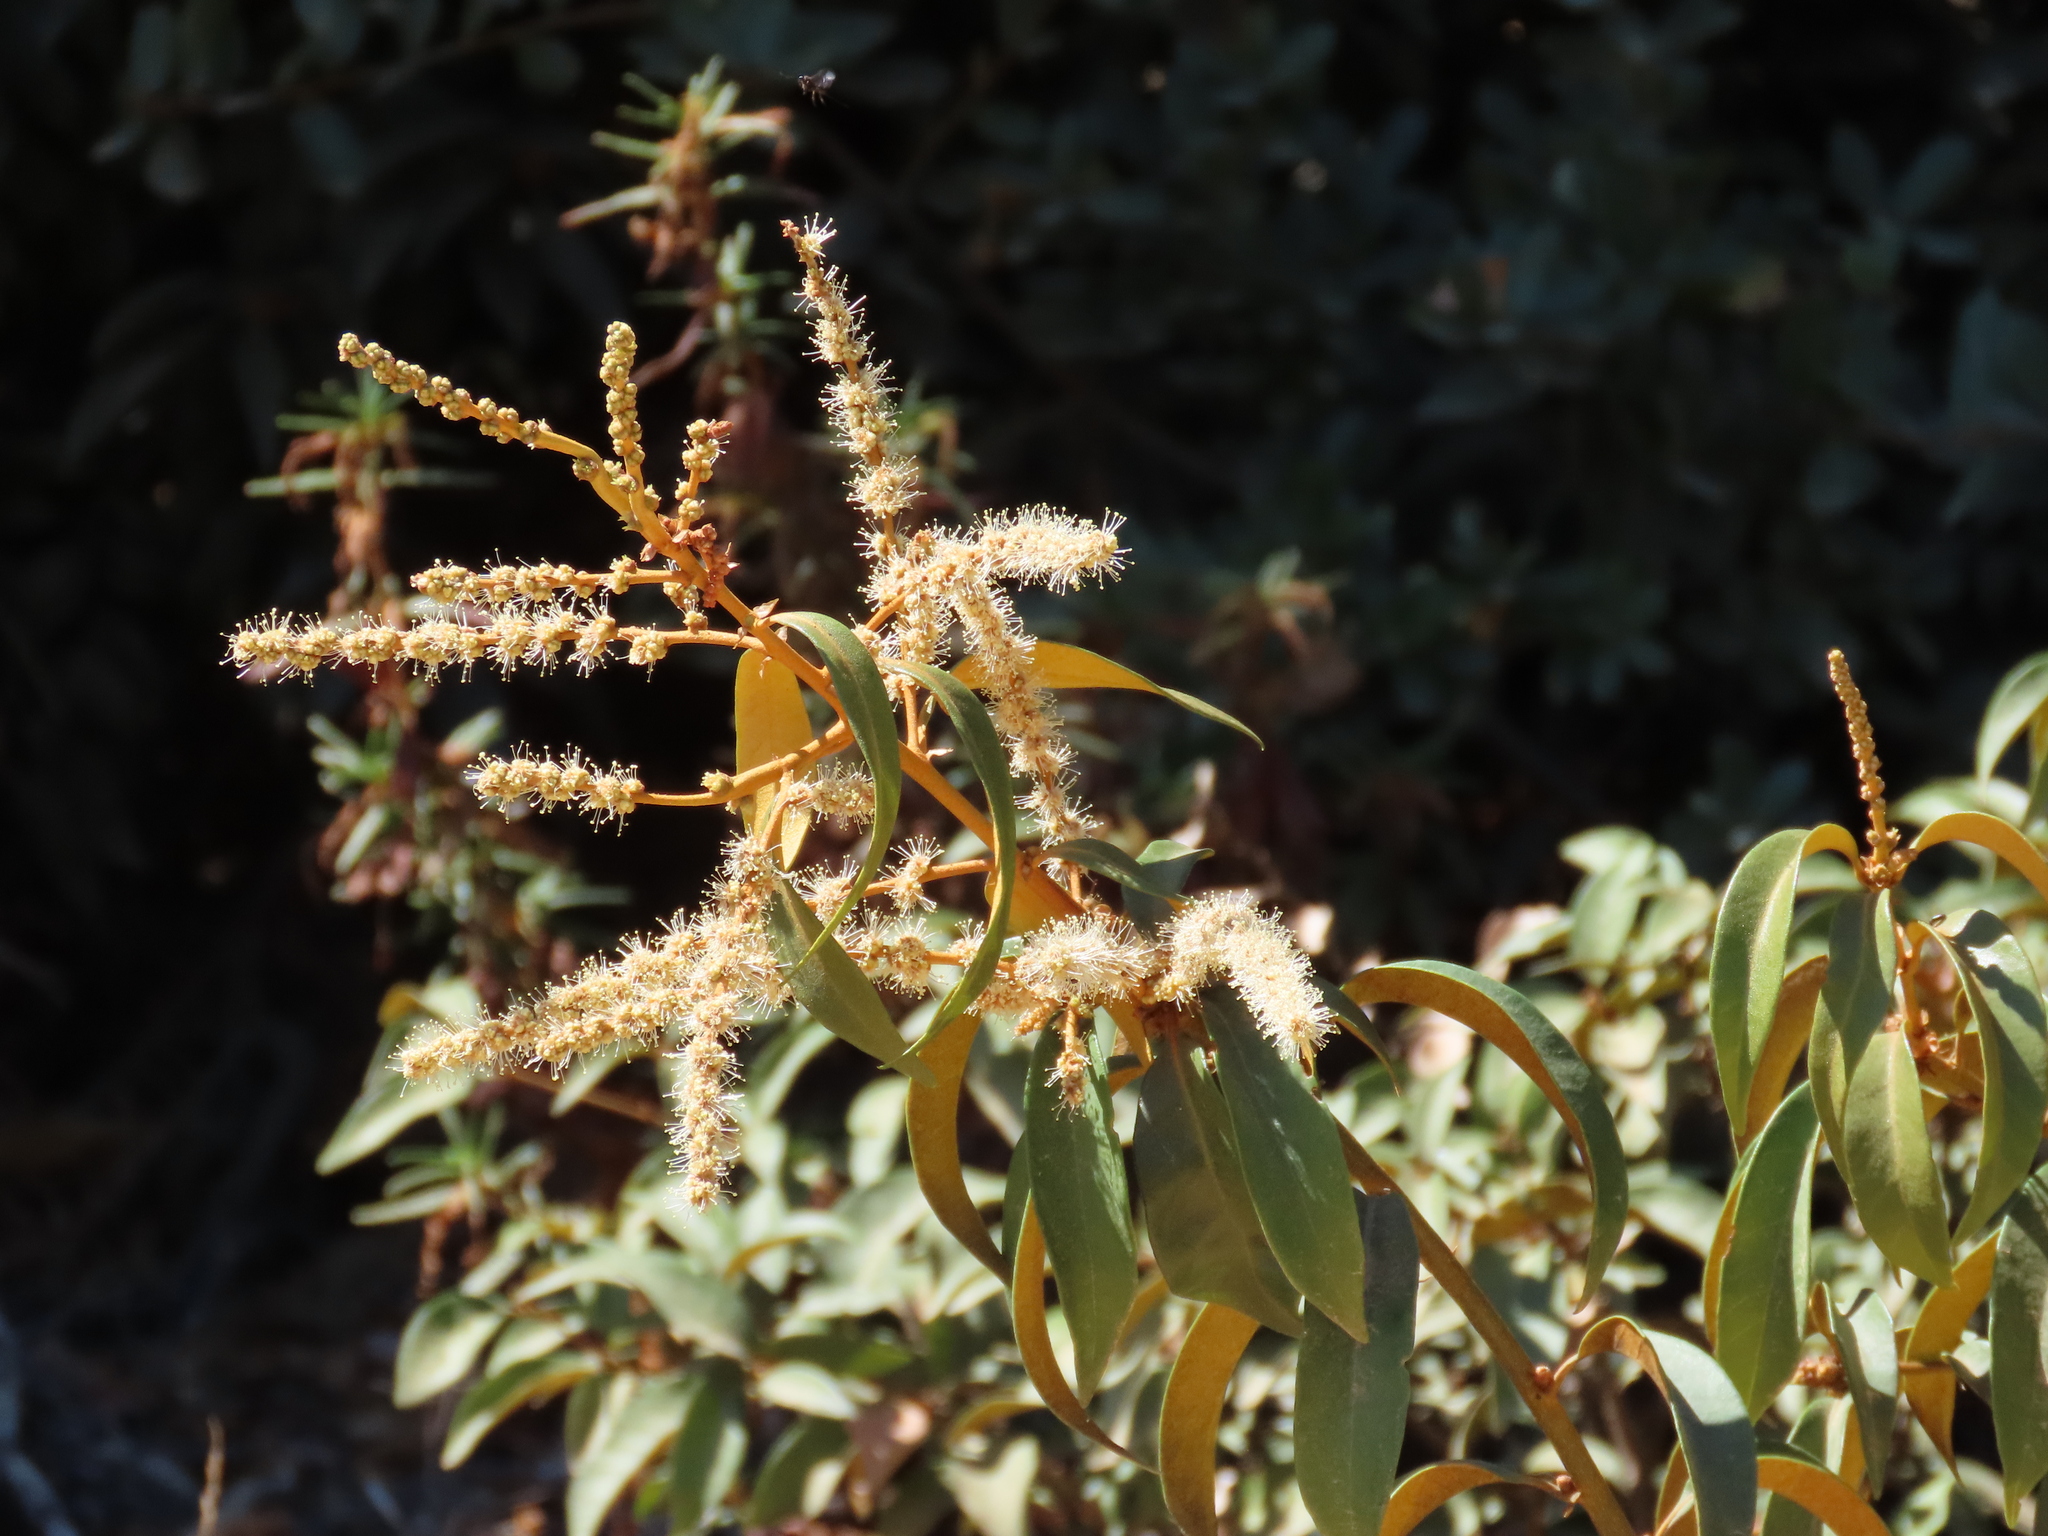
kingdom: Plantae
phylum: Tracheophyta
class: Magnoliopsida
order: Fagales
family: Fagaceae
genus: Chrysolepis
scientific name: Chrysolepis chrysophylla
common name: Giant chinquapin
